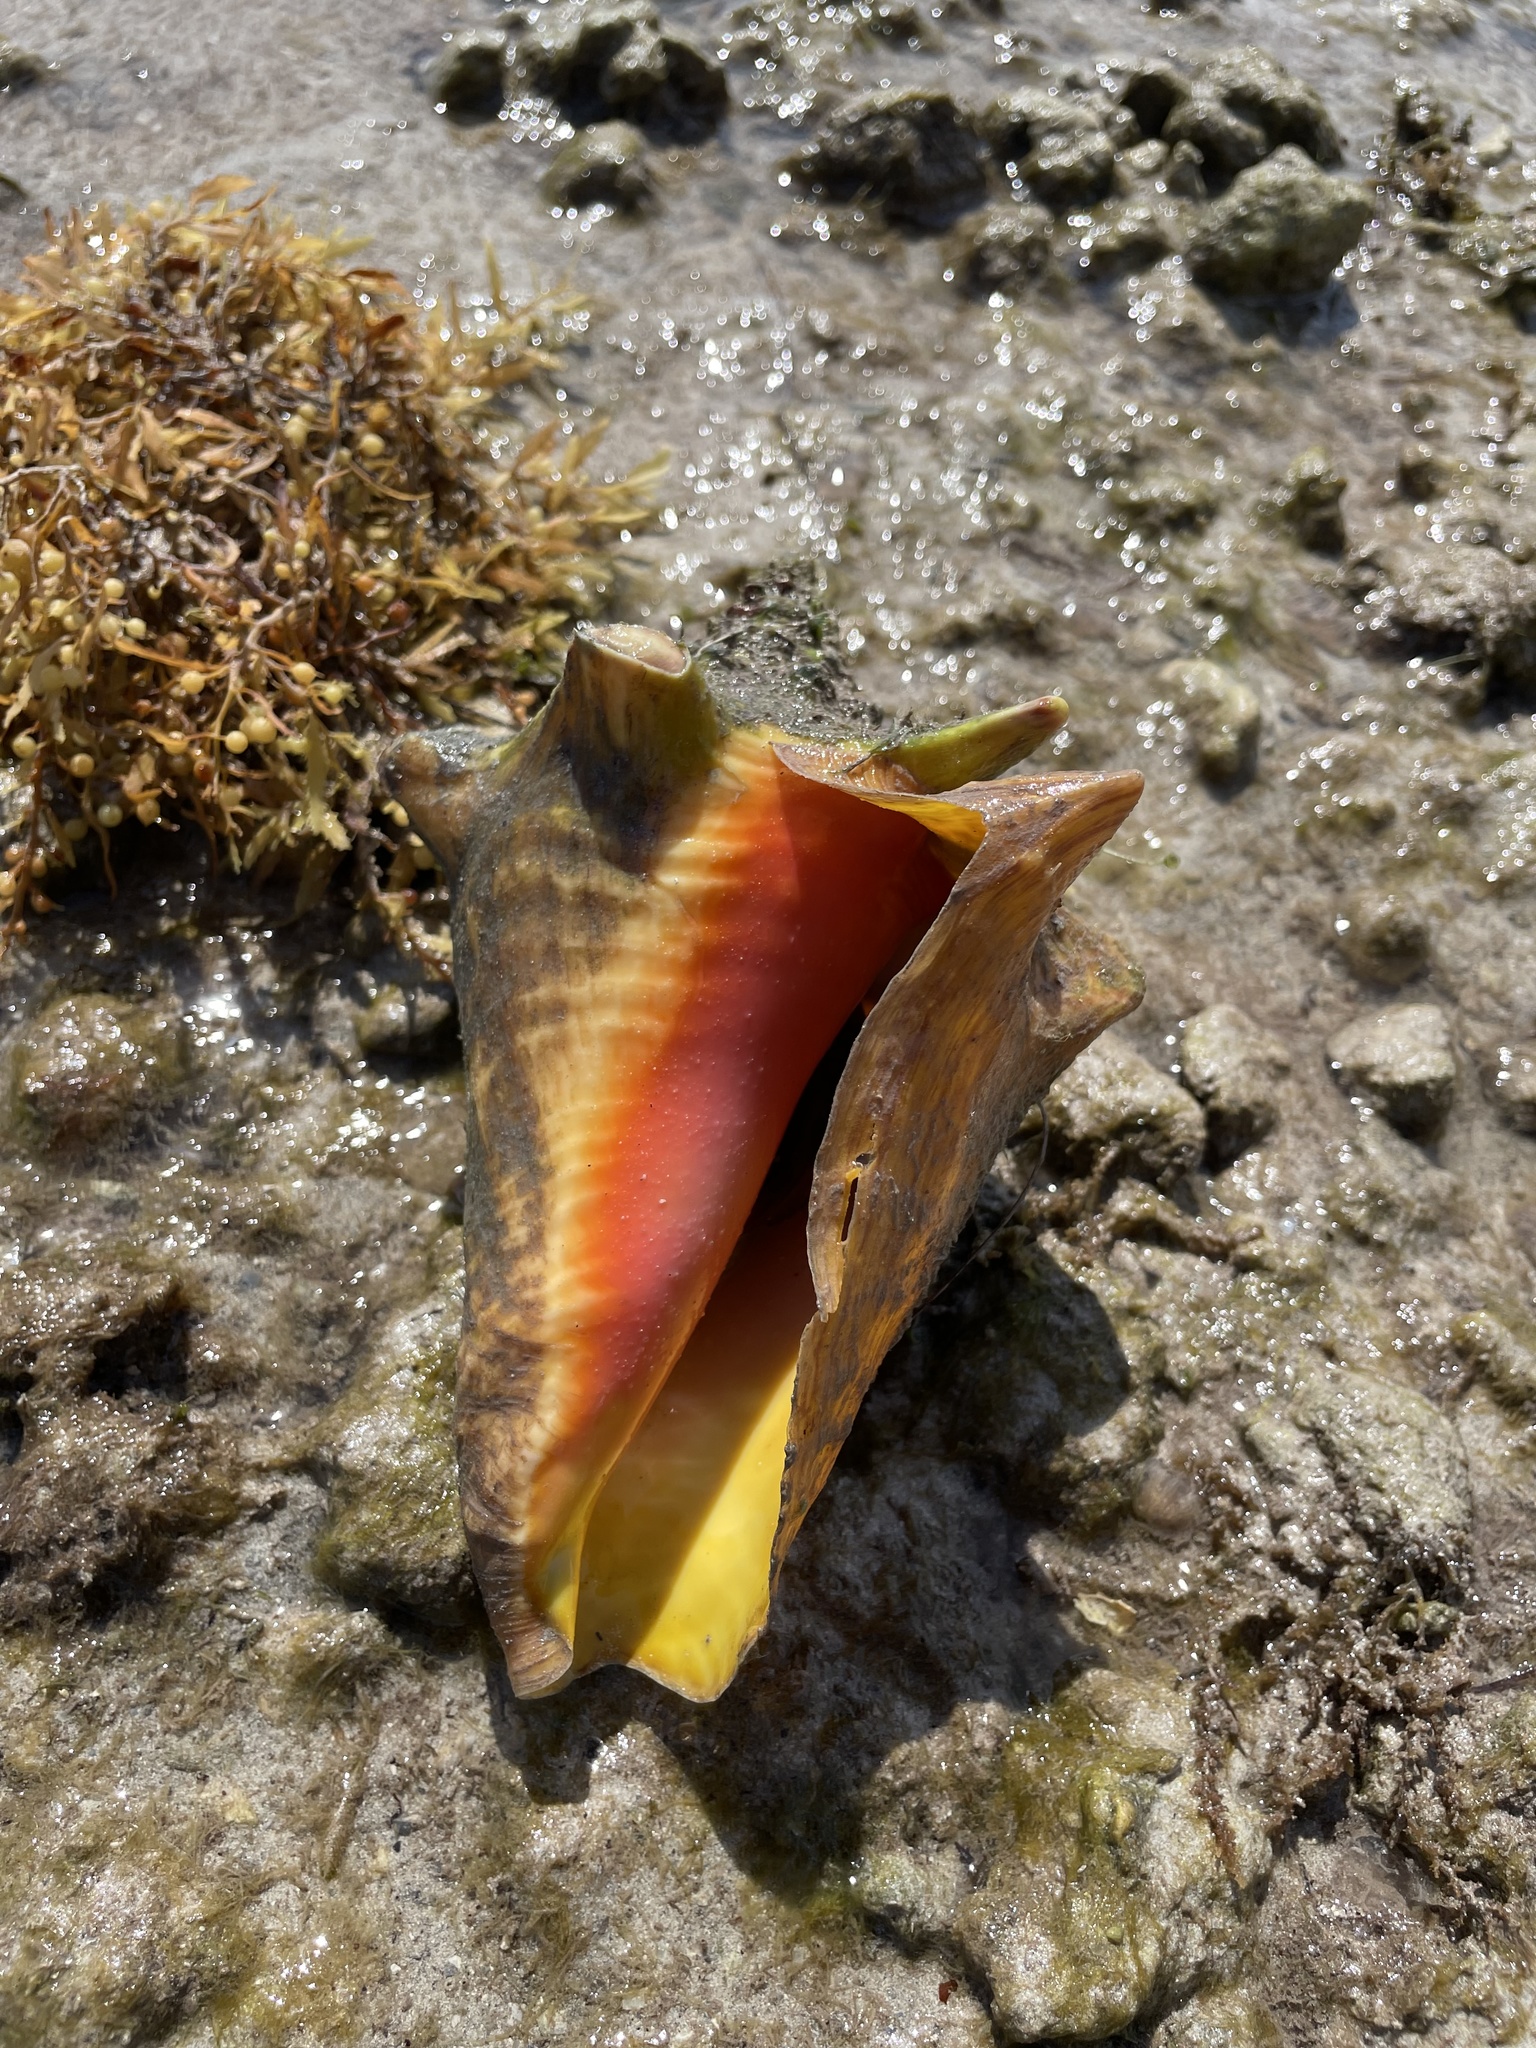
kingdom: Animalia
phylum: Mollusca
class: Gastropoda
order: Littorinimorpha
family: Strombidae
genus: Aliger
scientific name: Aliger gigas
